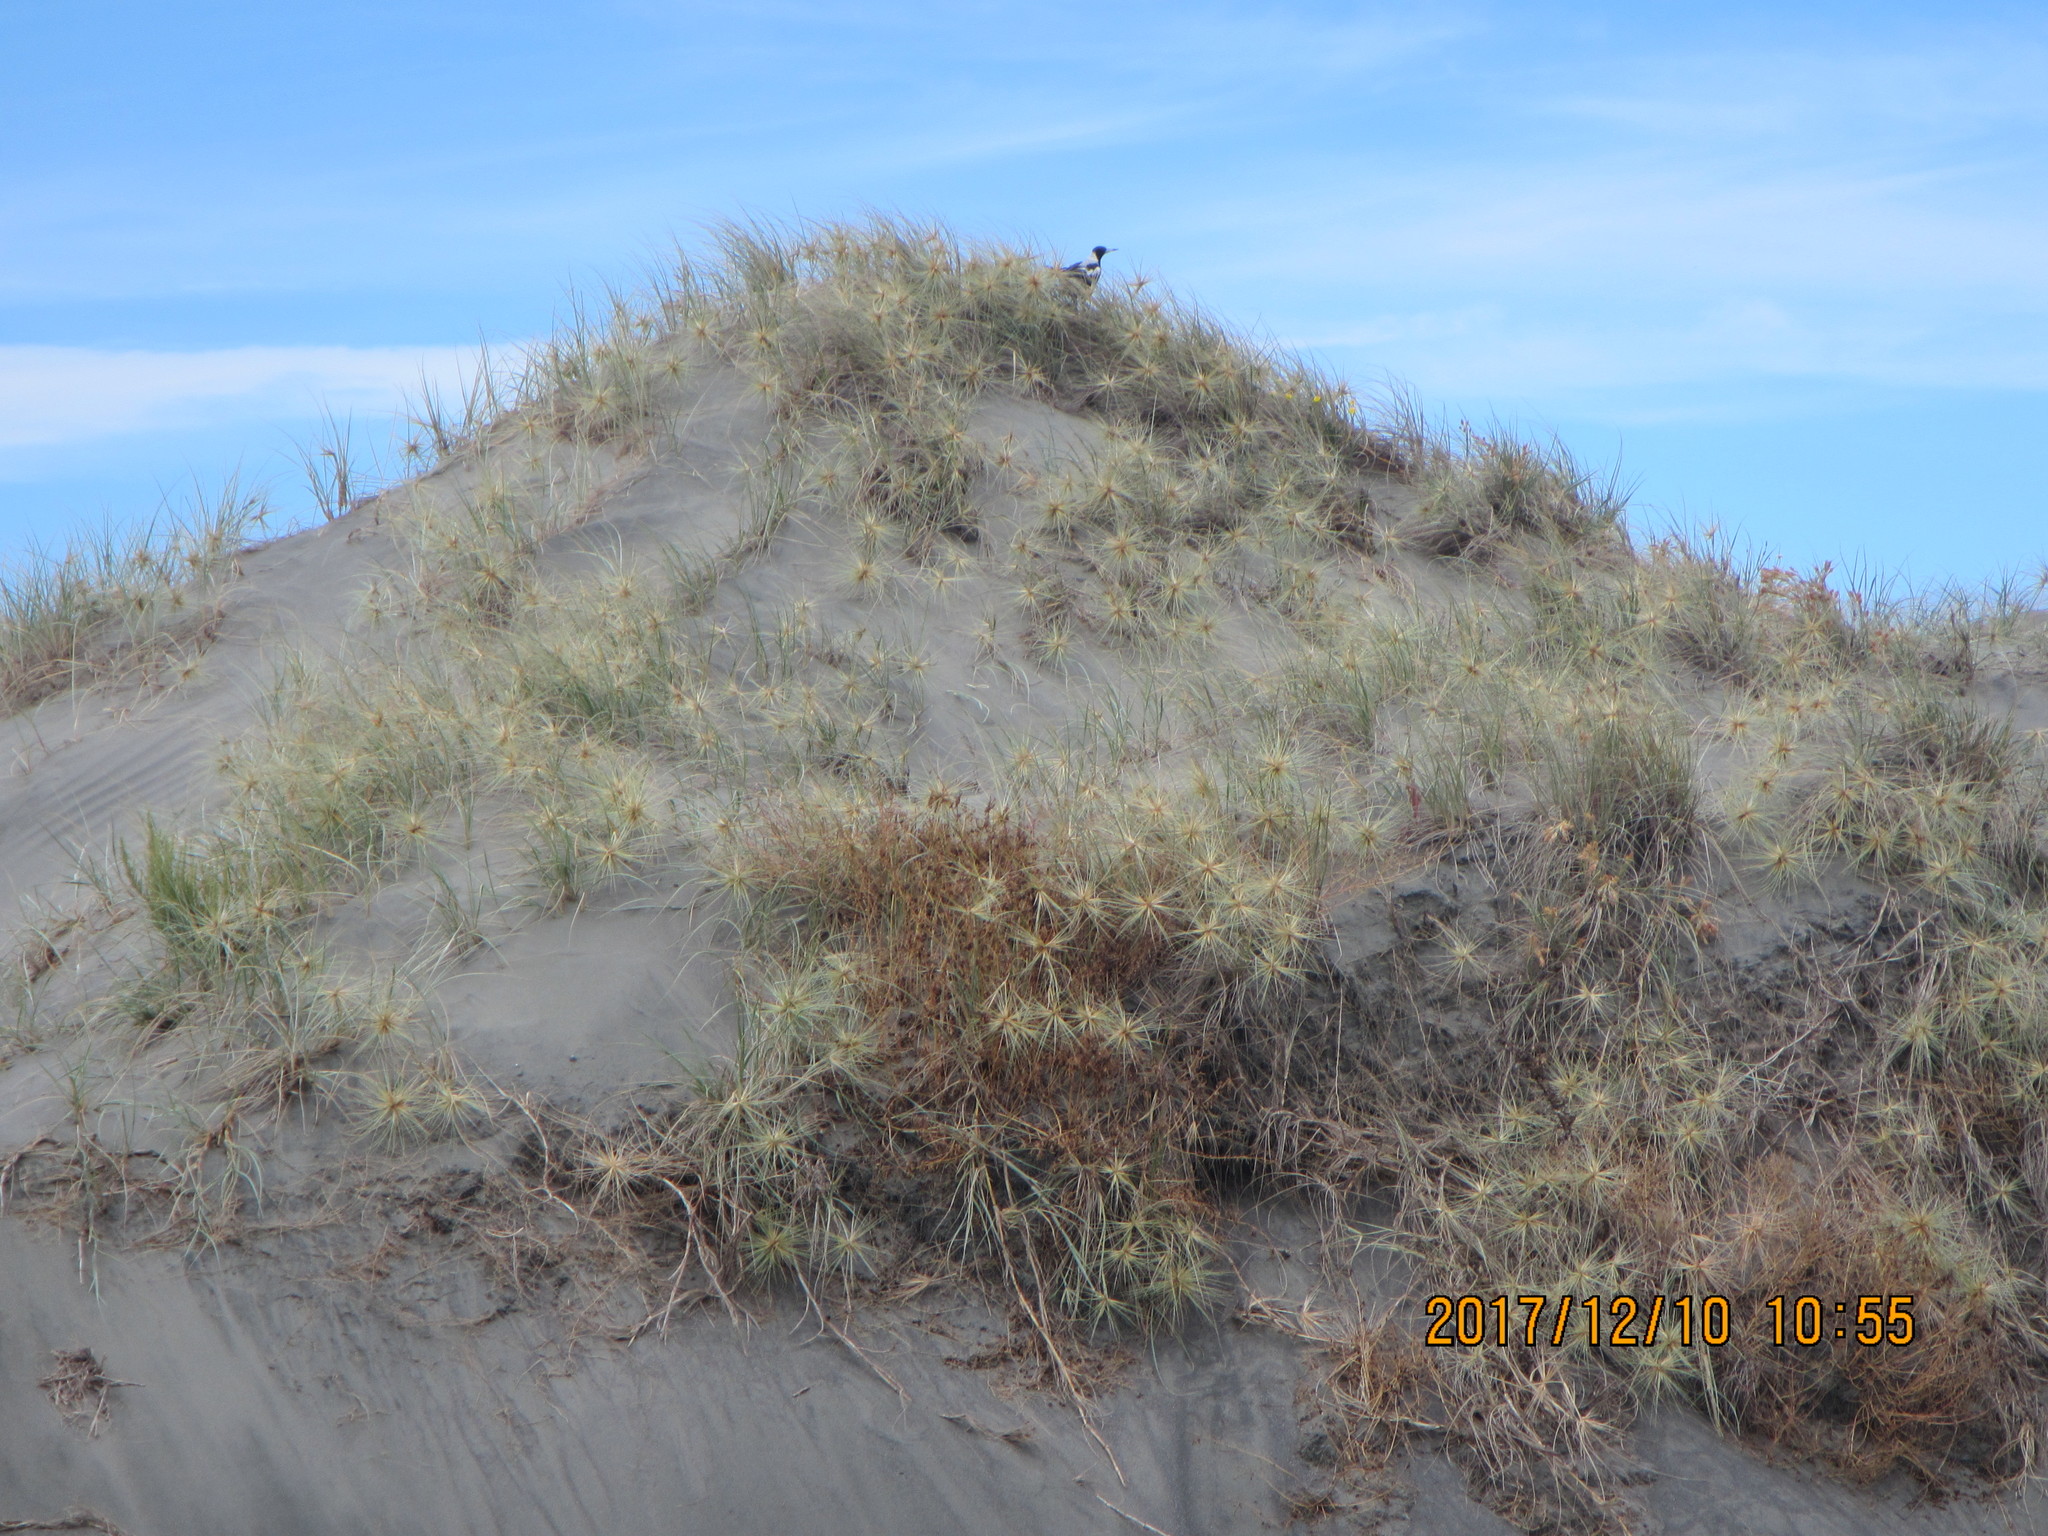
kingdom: Animalia
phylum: Chordata
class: Aves
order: Passeriformes
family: Cracticidae
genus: Gymnorhina
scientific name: Gymnorhina tibicen
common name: Australian magpie
